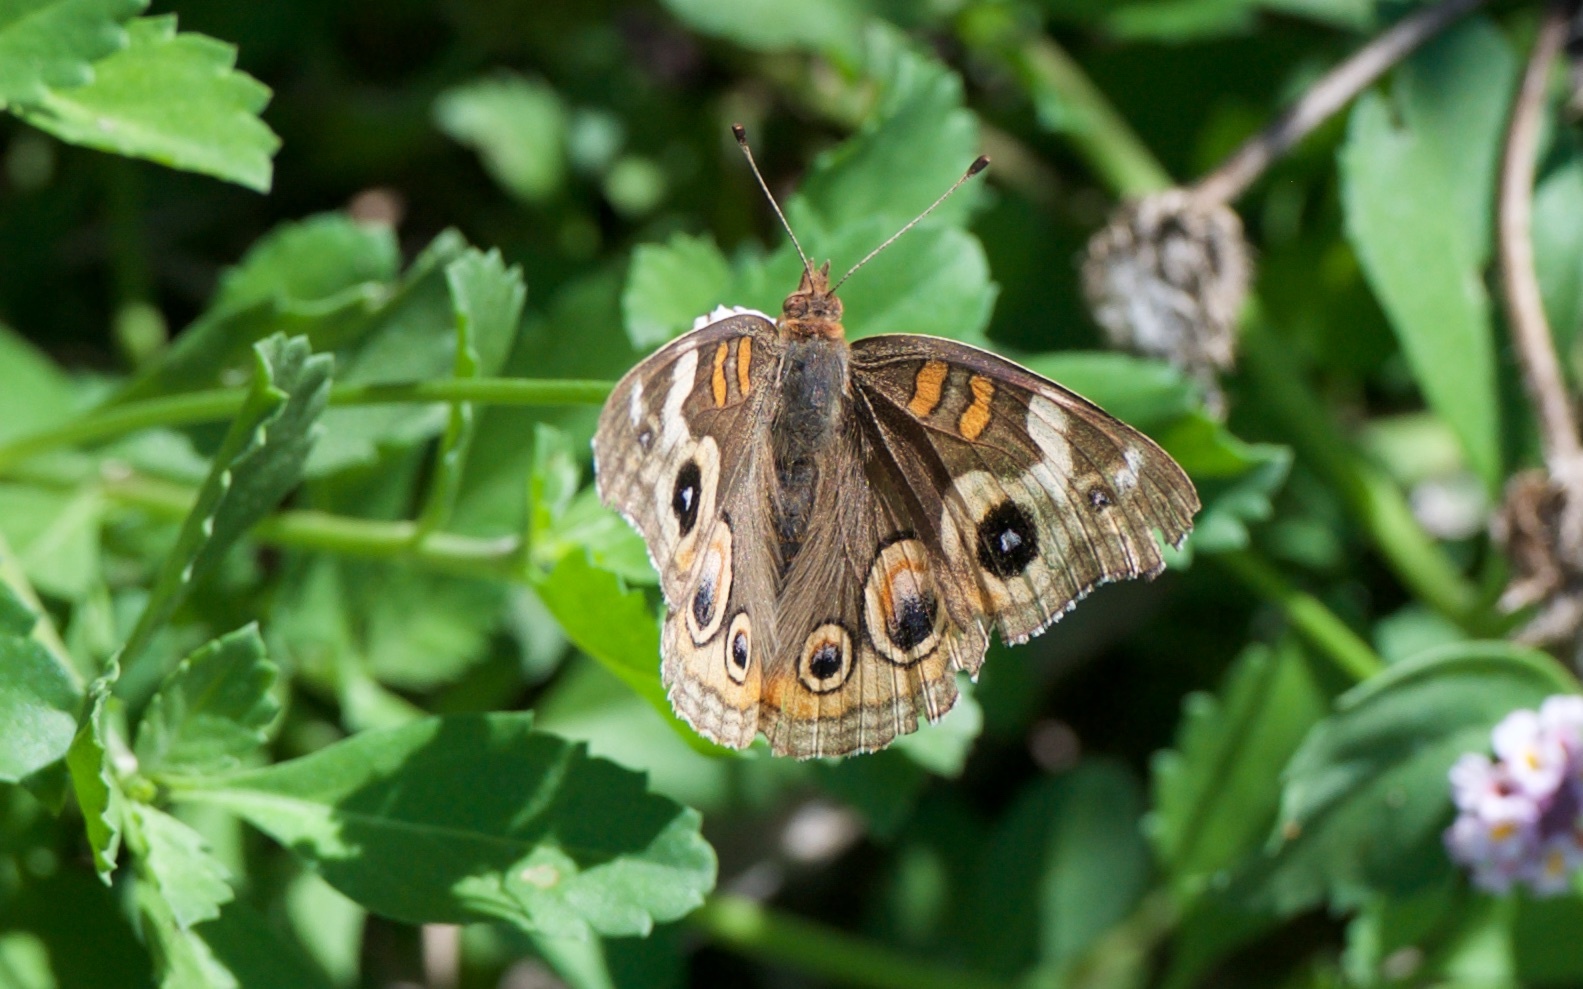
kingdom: Animalia
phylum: Arthropoda
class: Insecta
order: Lepidoptera
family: Nymphalidae
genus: Junonia
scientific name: Junonia grisea
